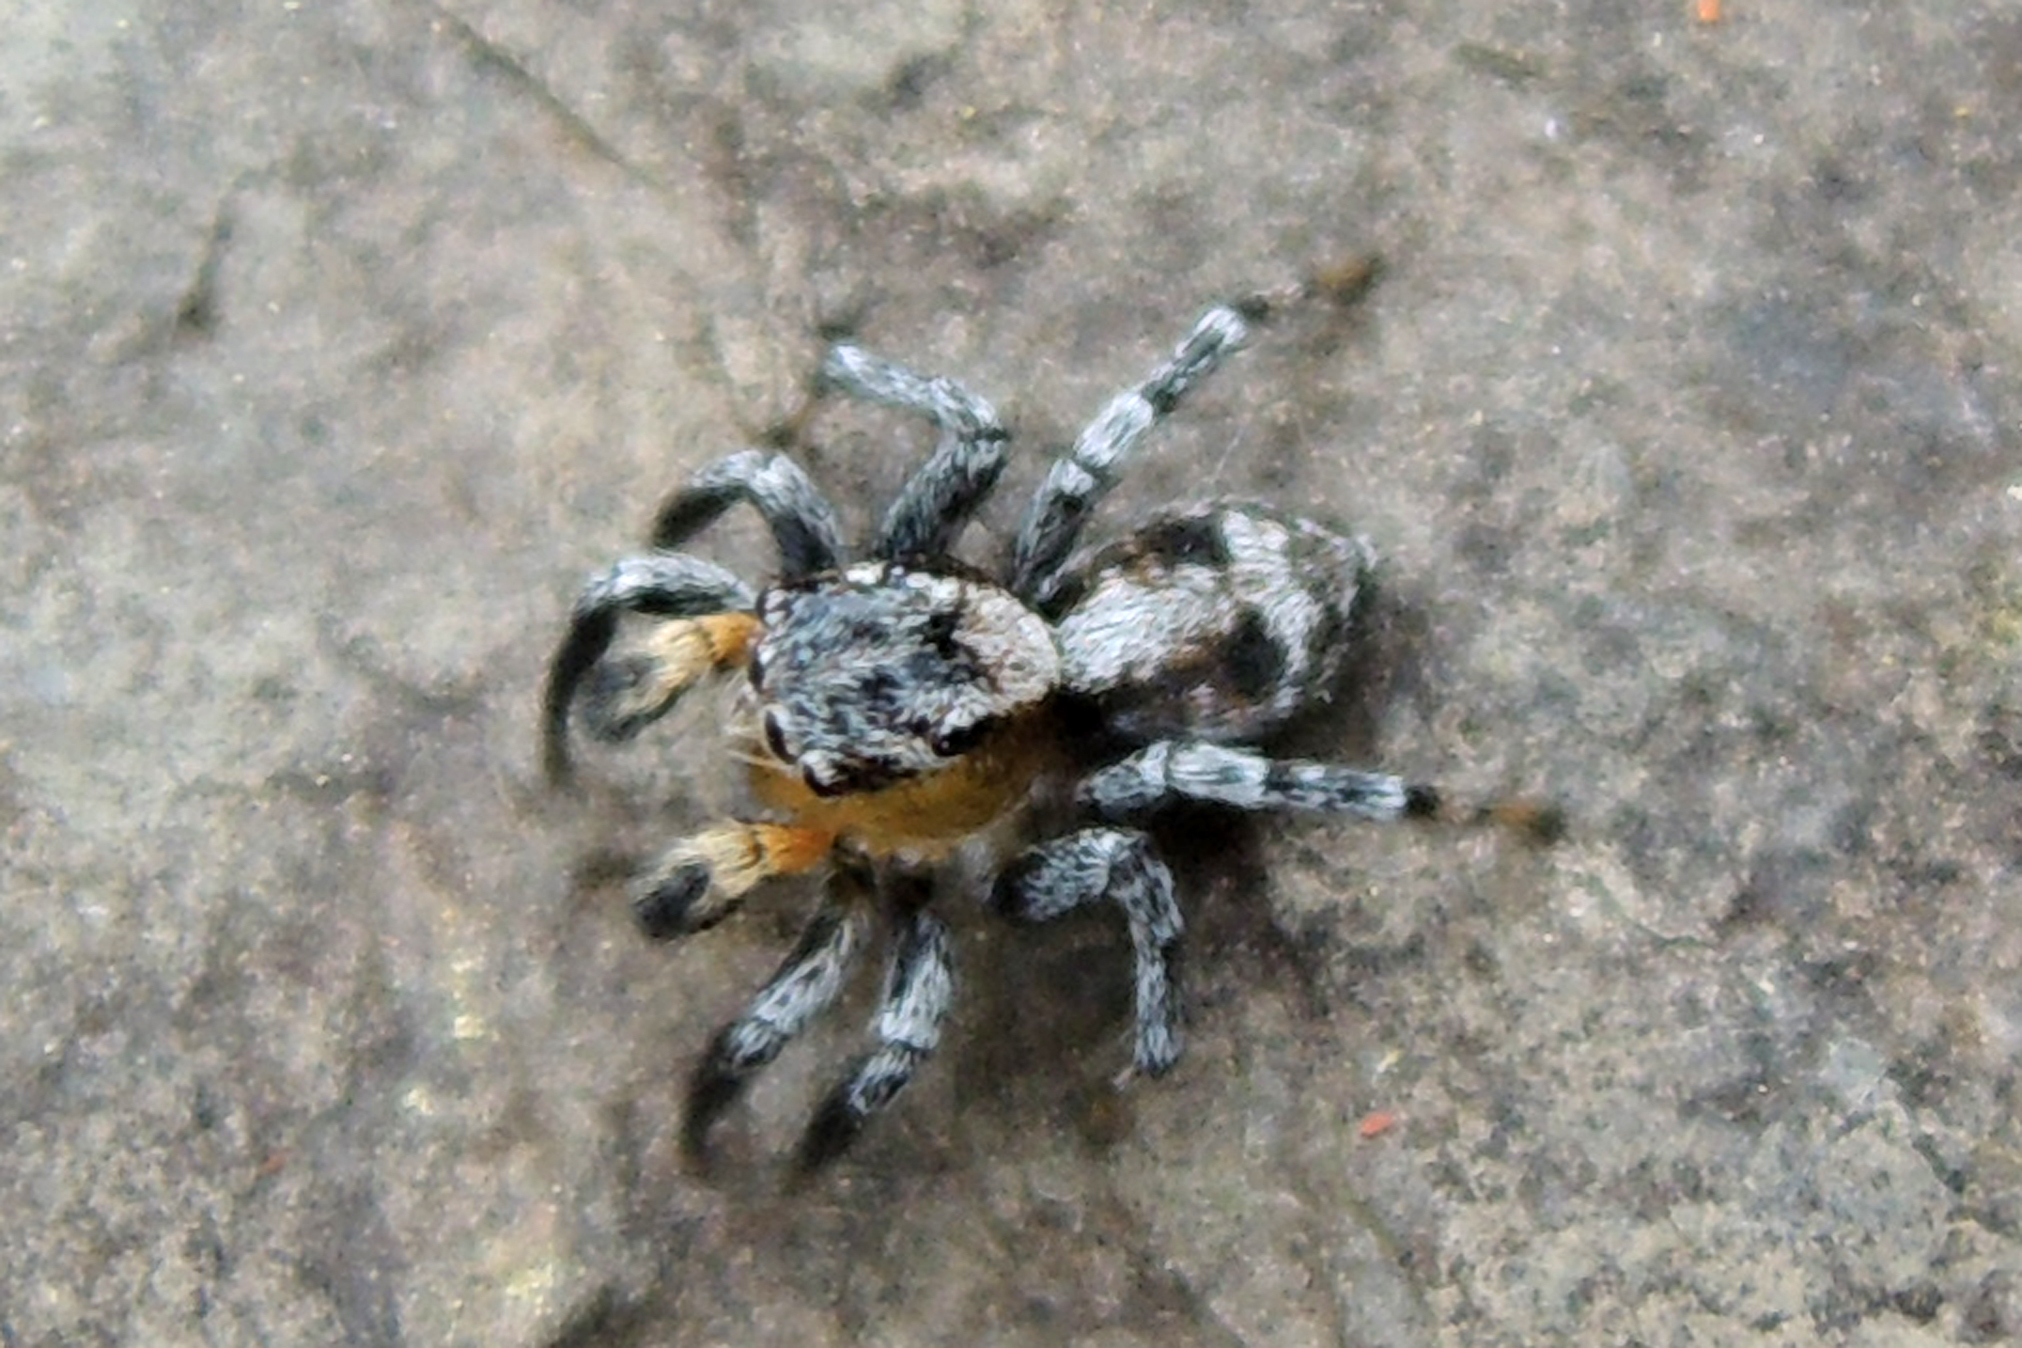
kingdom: Animalia
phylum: Arthropoda
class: Arachnida
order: Araneae
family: Salticidae
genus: Naphrys
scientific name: Naphrys pulex
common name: Flea jumping spider
